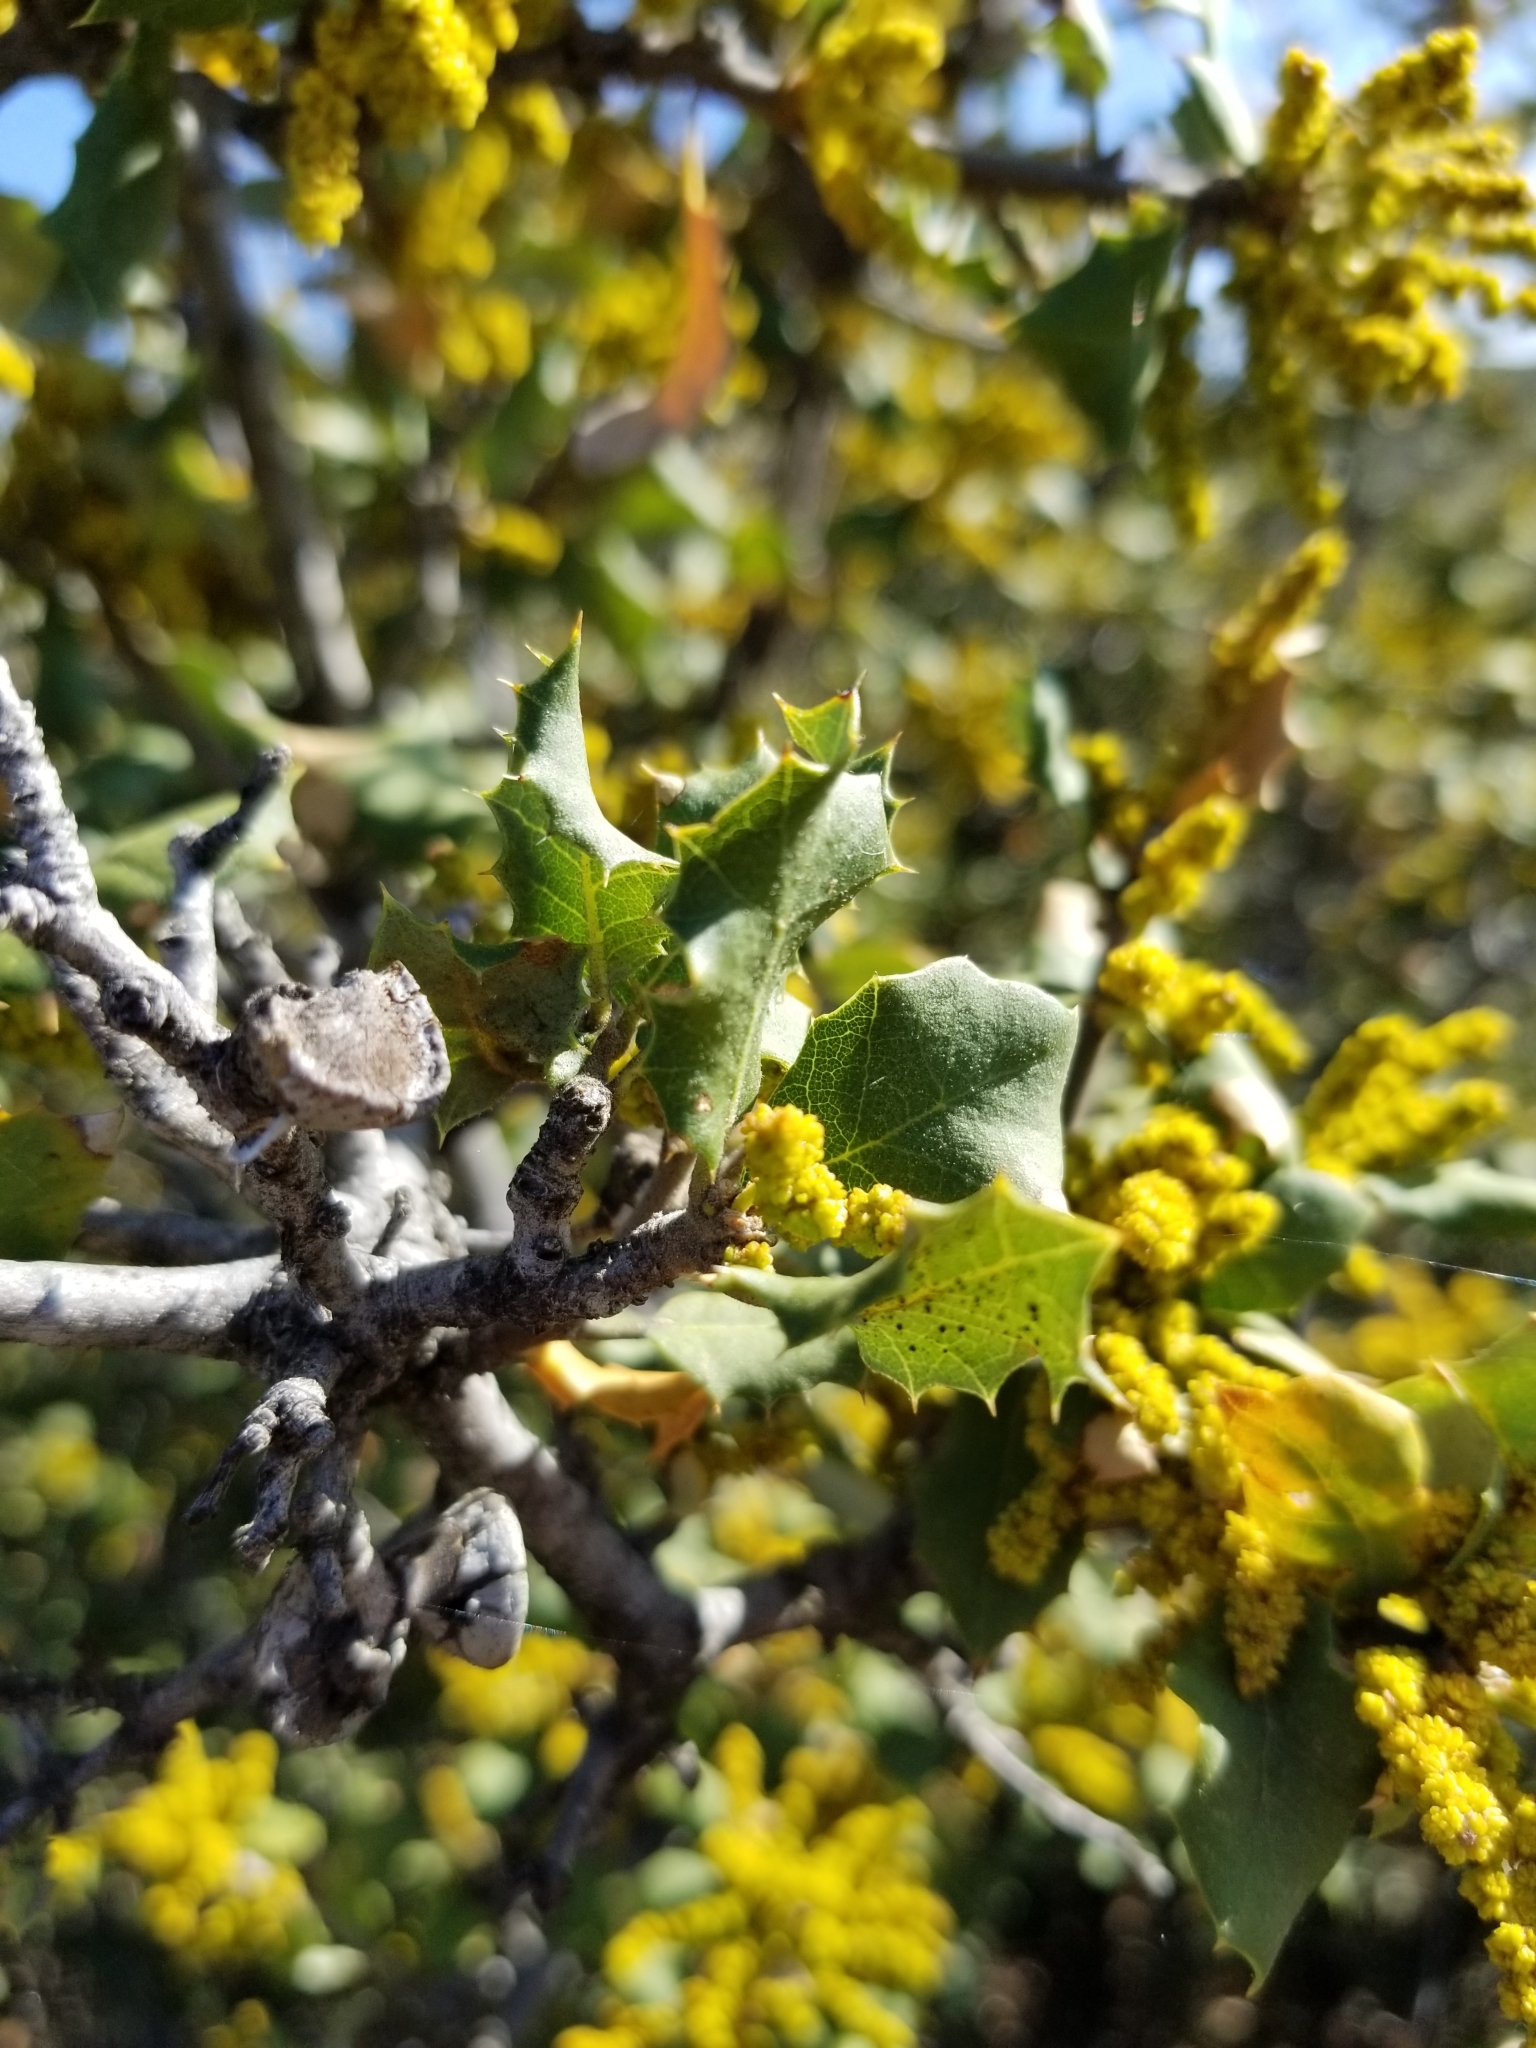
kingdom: Plantae
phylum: Tracheophyta
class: Magnoliopsida
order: Fagales
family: Fagaceae
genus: Quercus
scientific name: Quercus palmeri
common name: Dunn oak
